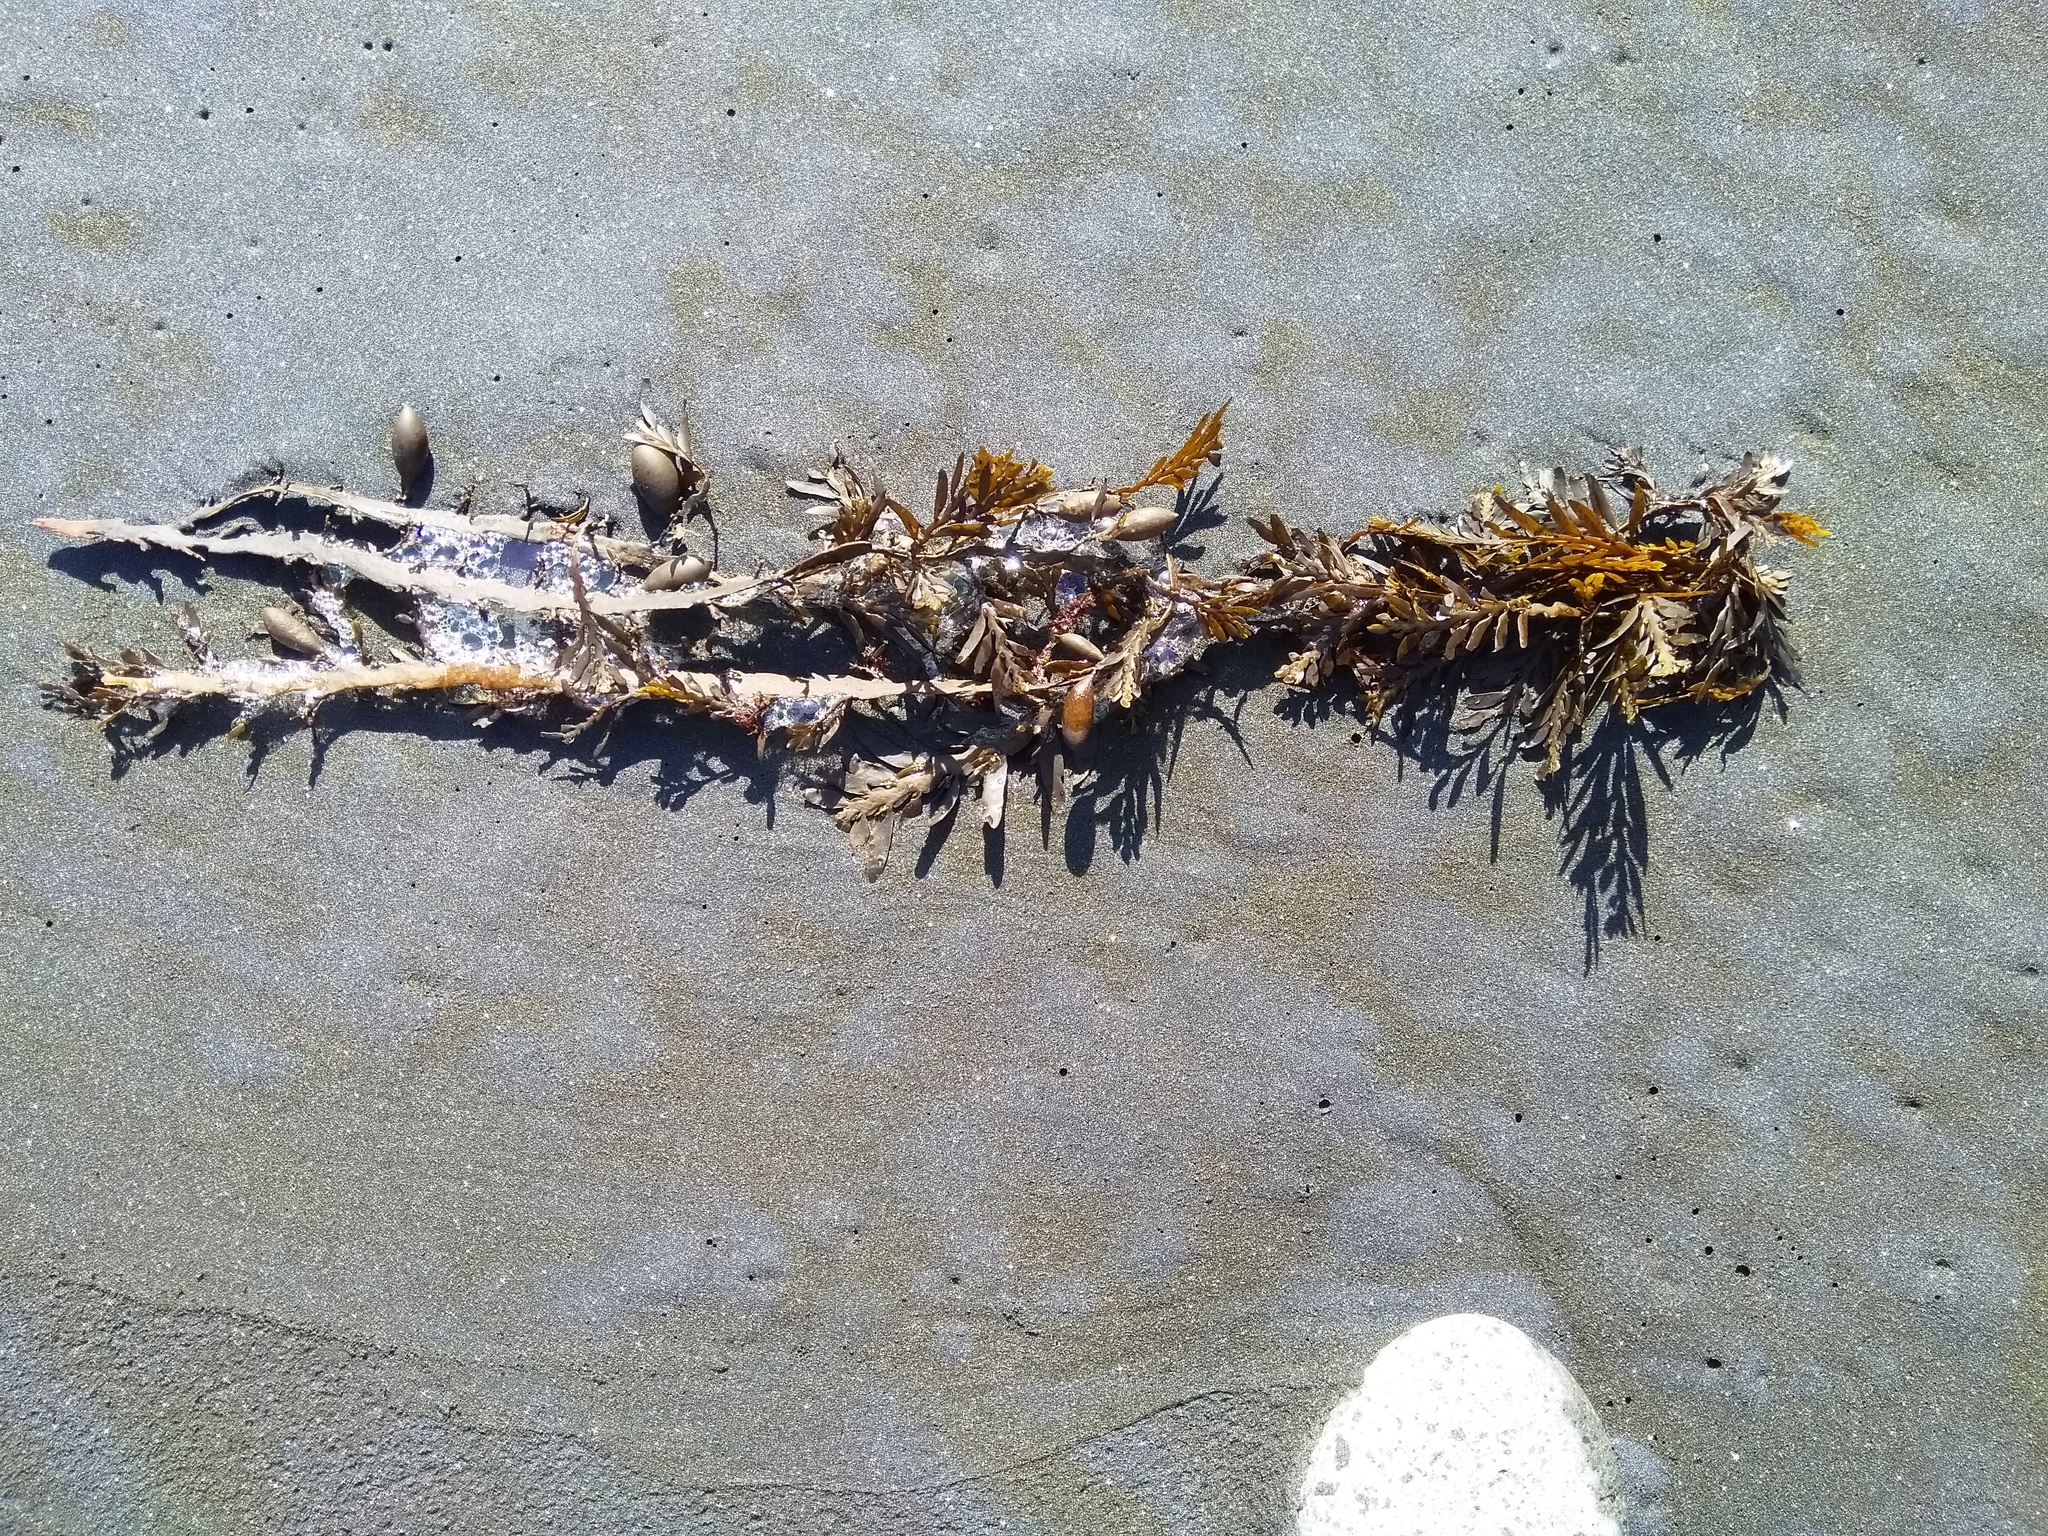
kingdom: Chromista
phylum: Ochrophyta
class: Phaeophyceae
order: Fucales
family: Sargassaceae
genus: Carpophyllum
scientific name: Carpophyllum maschalocarpum
